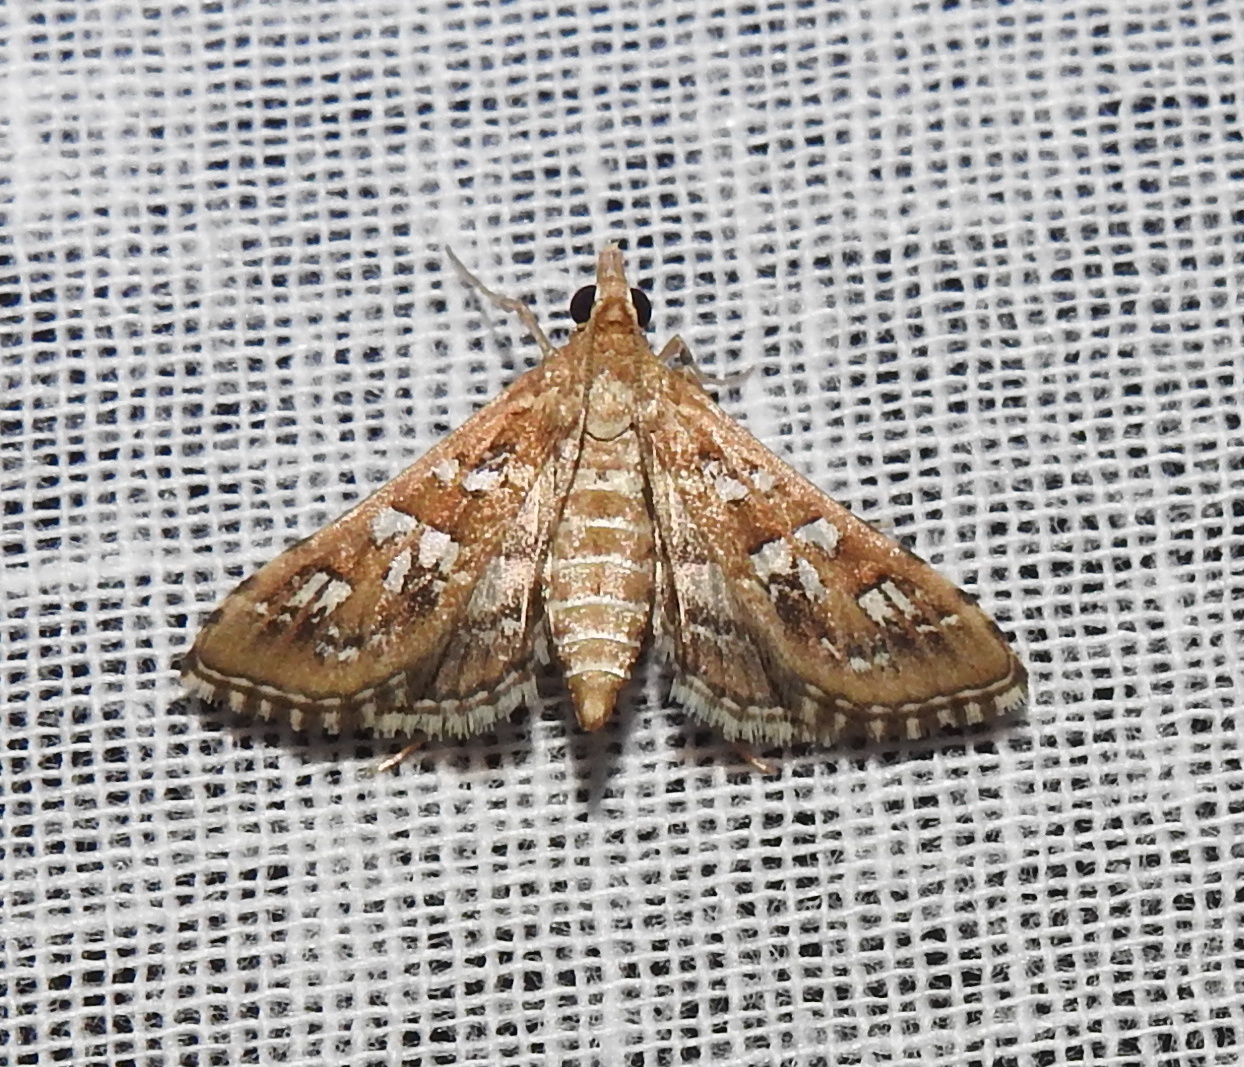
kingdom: Animalia
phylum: Arthropoda
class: Insecta
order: Lepidoptera
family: Crambidae
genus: Sameodes
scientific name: Sameodes cancellalis
